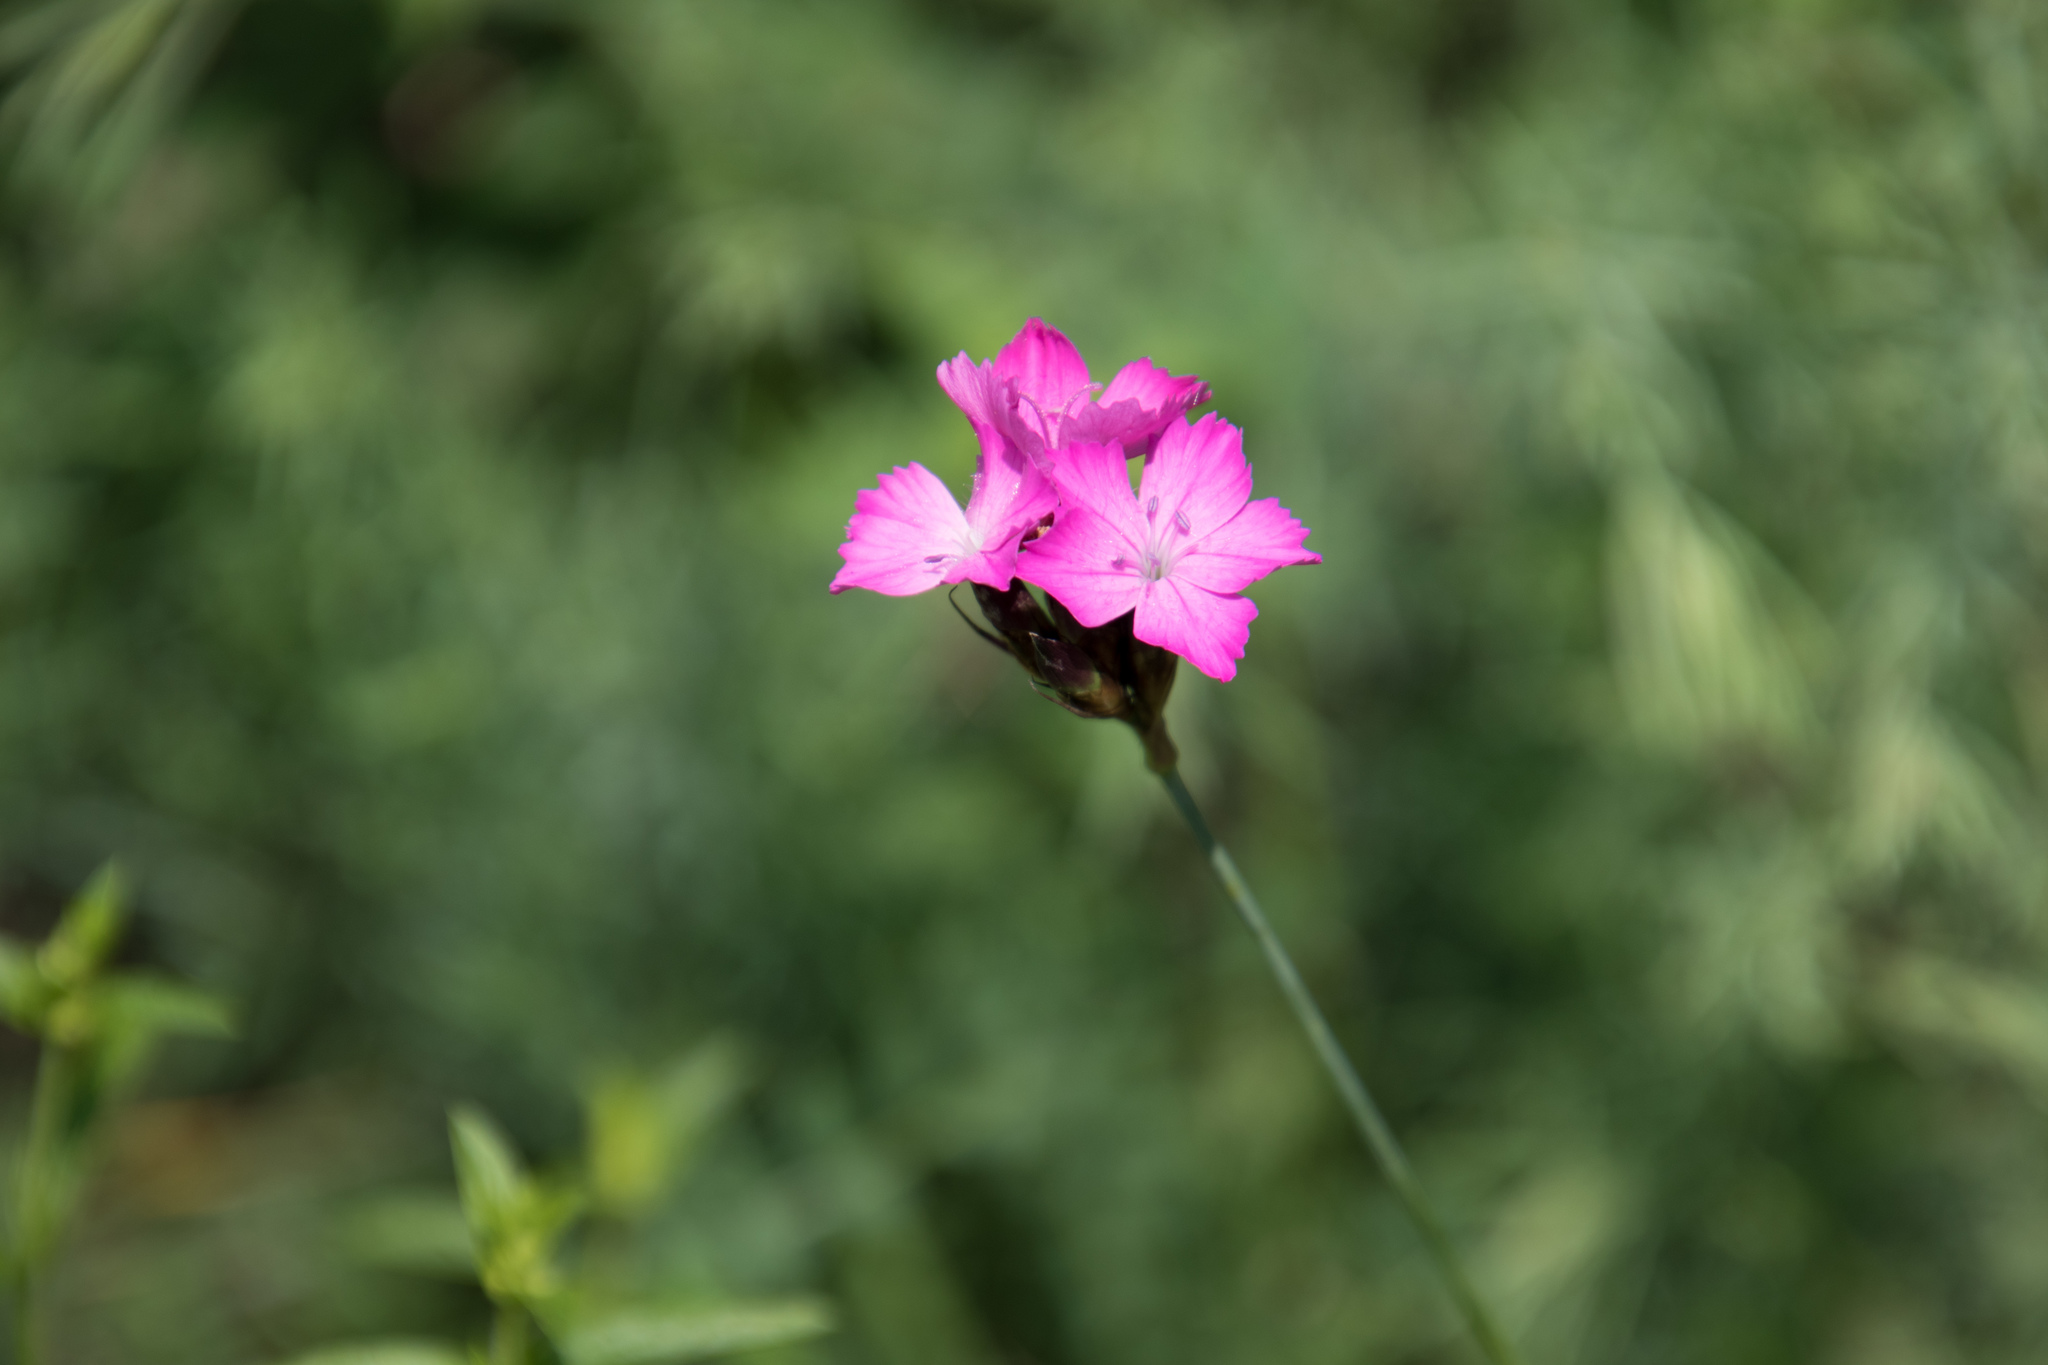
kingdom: Plantae
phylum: Tracheophyta
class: Magnoliopsida
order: Caryophyllales
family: Caryophyllaceae
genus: Dianthus
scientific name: Dianthus carthusianorum
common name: Carthusian pink
